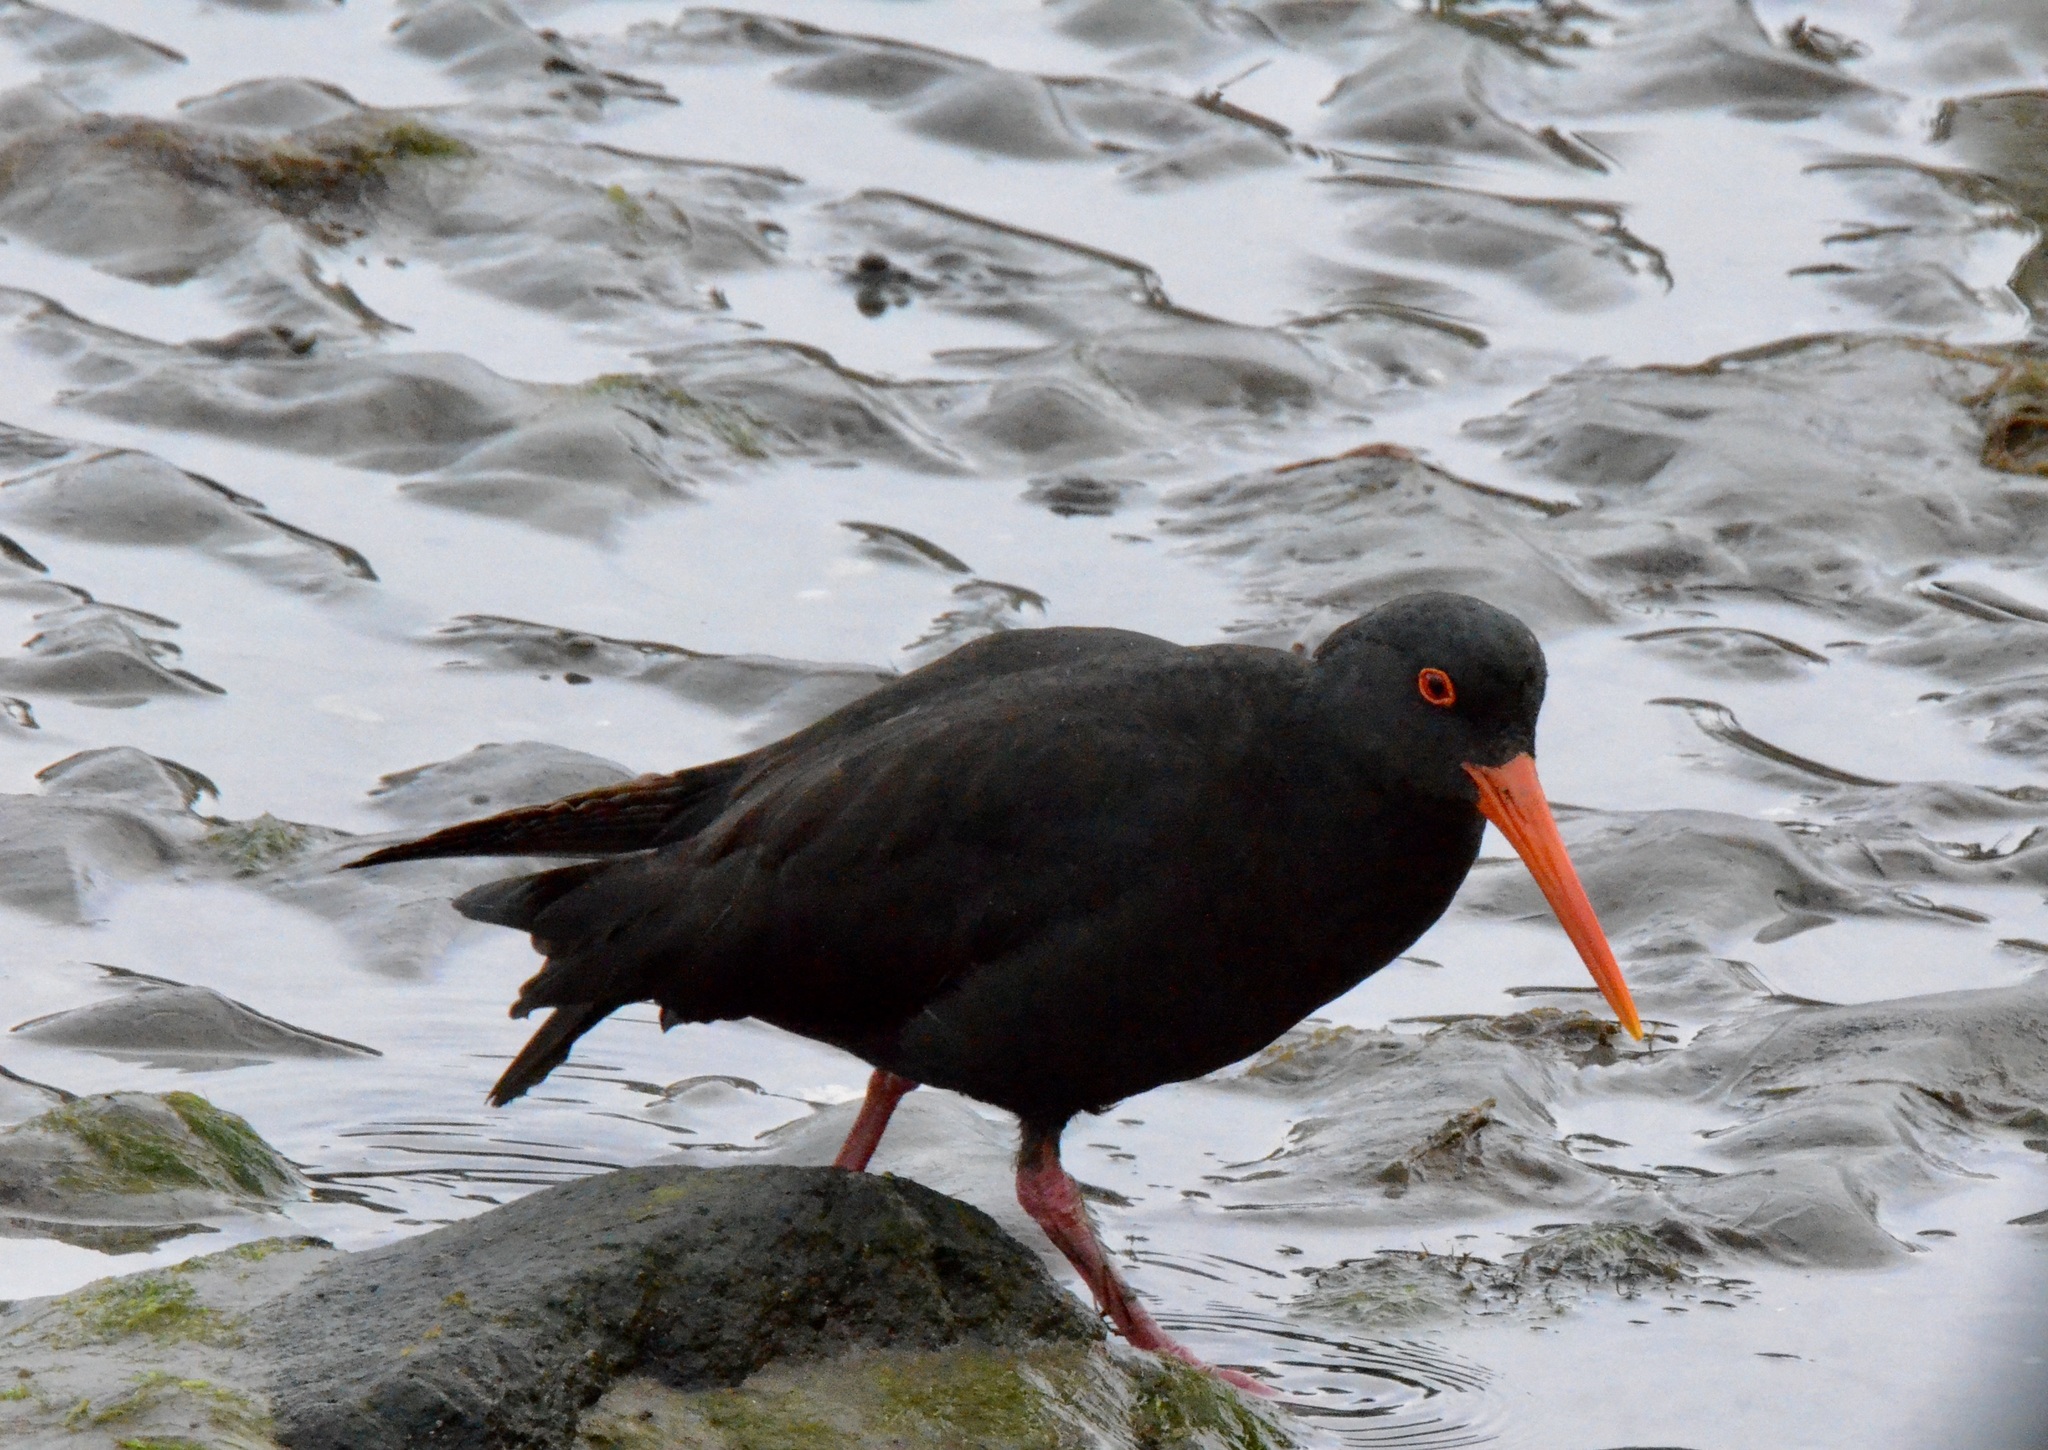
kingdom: Animalia
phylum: Chordata
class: Aves
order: Charadriiformes
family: Haematopodidae
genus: Haematopus
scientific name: Haematopus unicolor
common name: Variable oystercatcher
